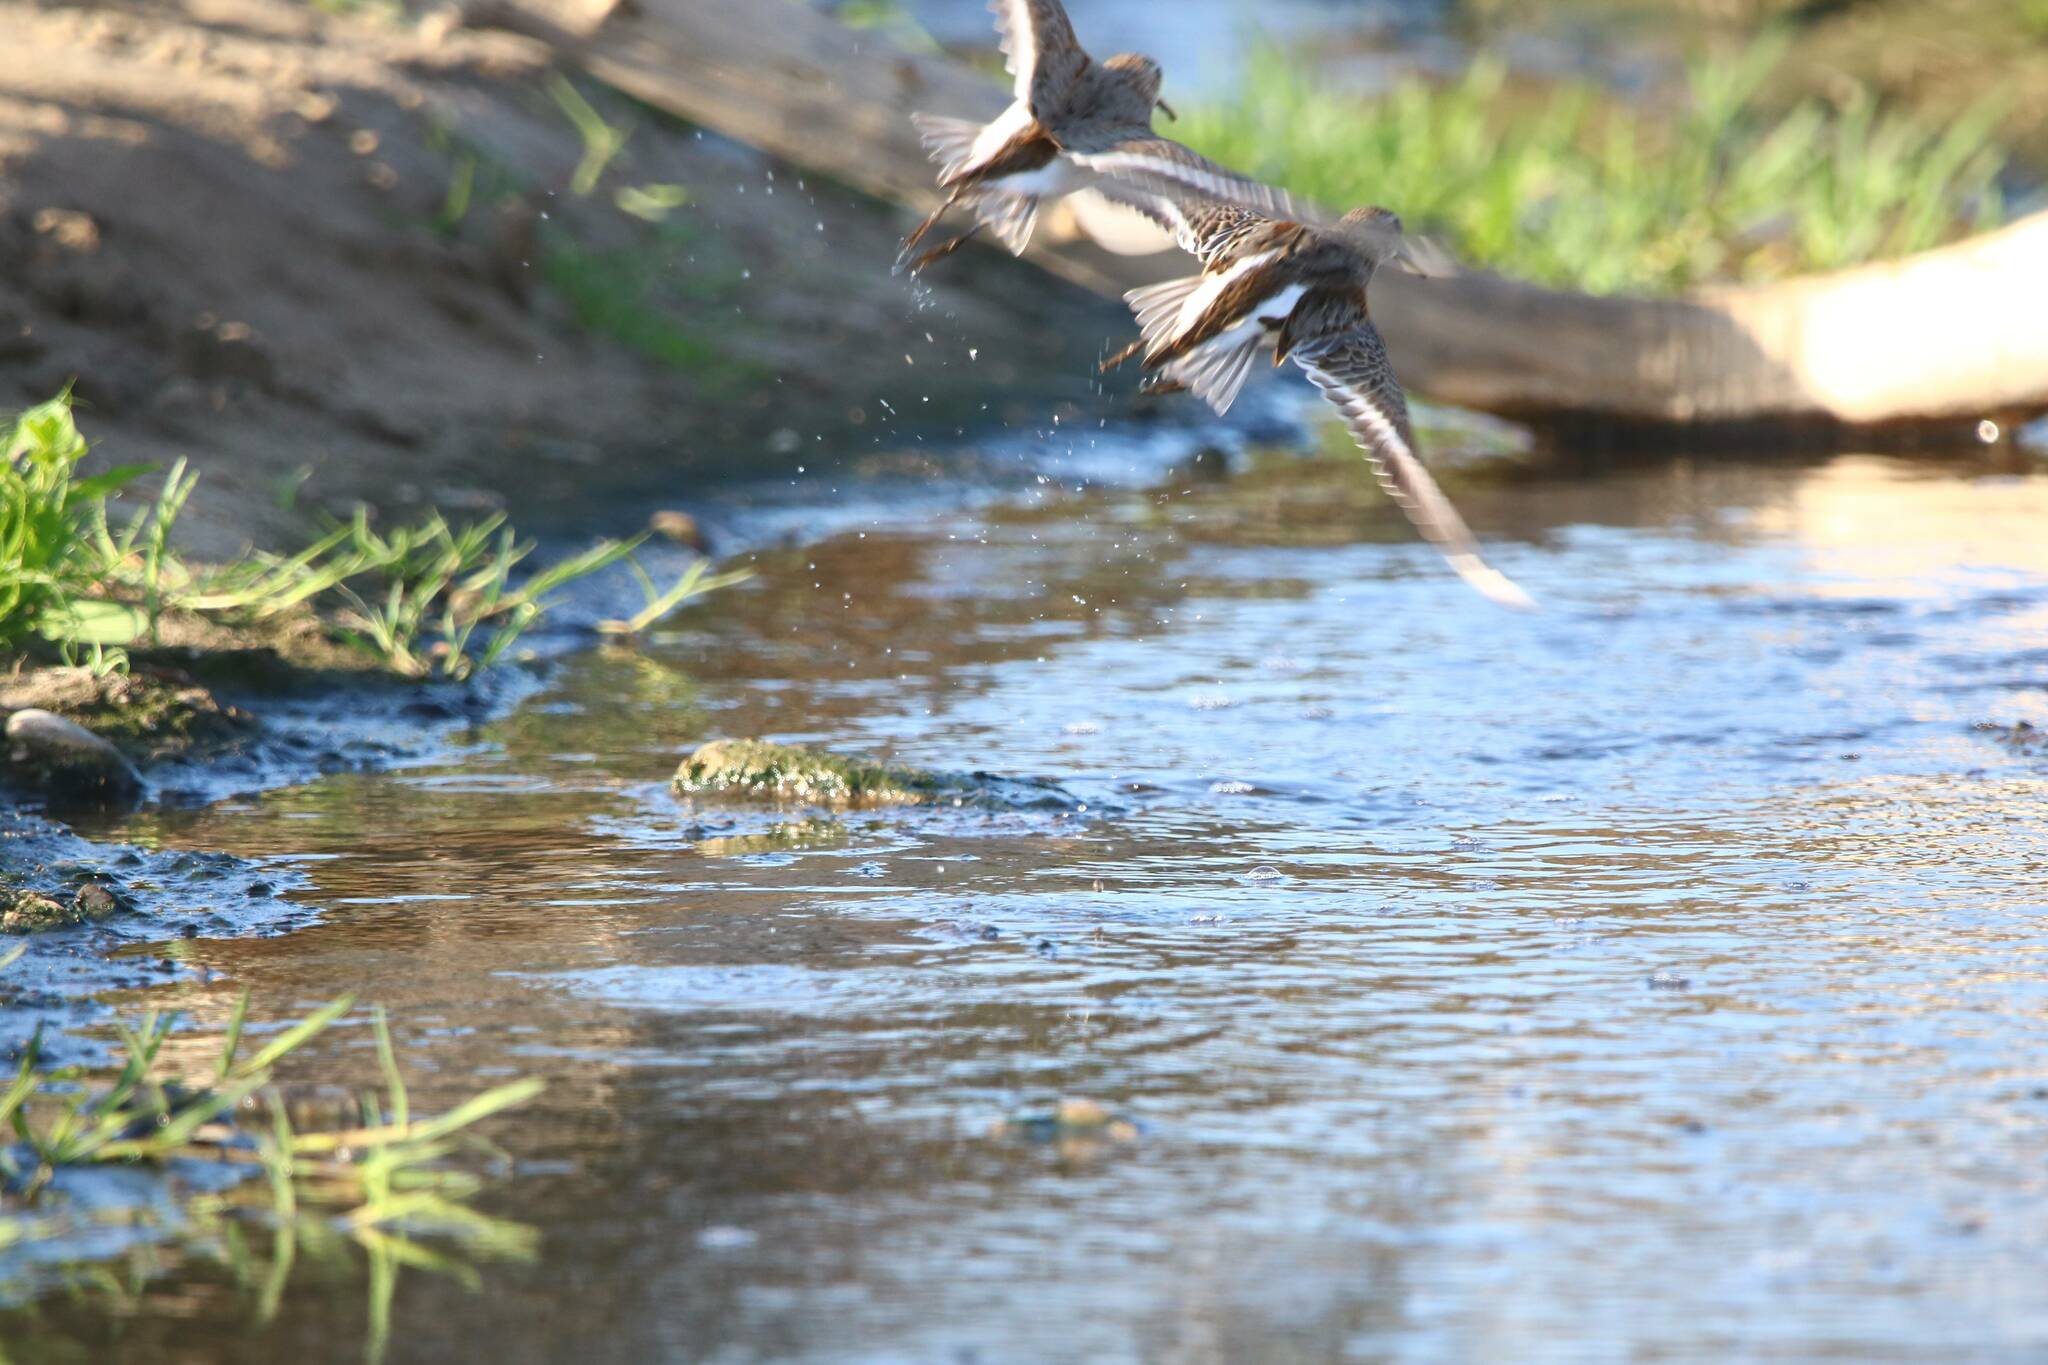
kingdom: Animalia
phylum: Chordata
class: Aves
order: Charadriiformes
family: Scolopacidae
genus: Calidris
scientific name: Calidris alpina
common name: Dunlin
